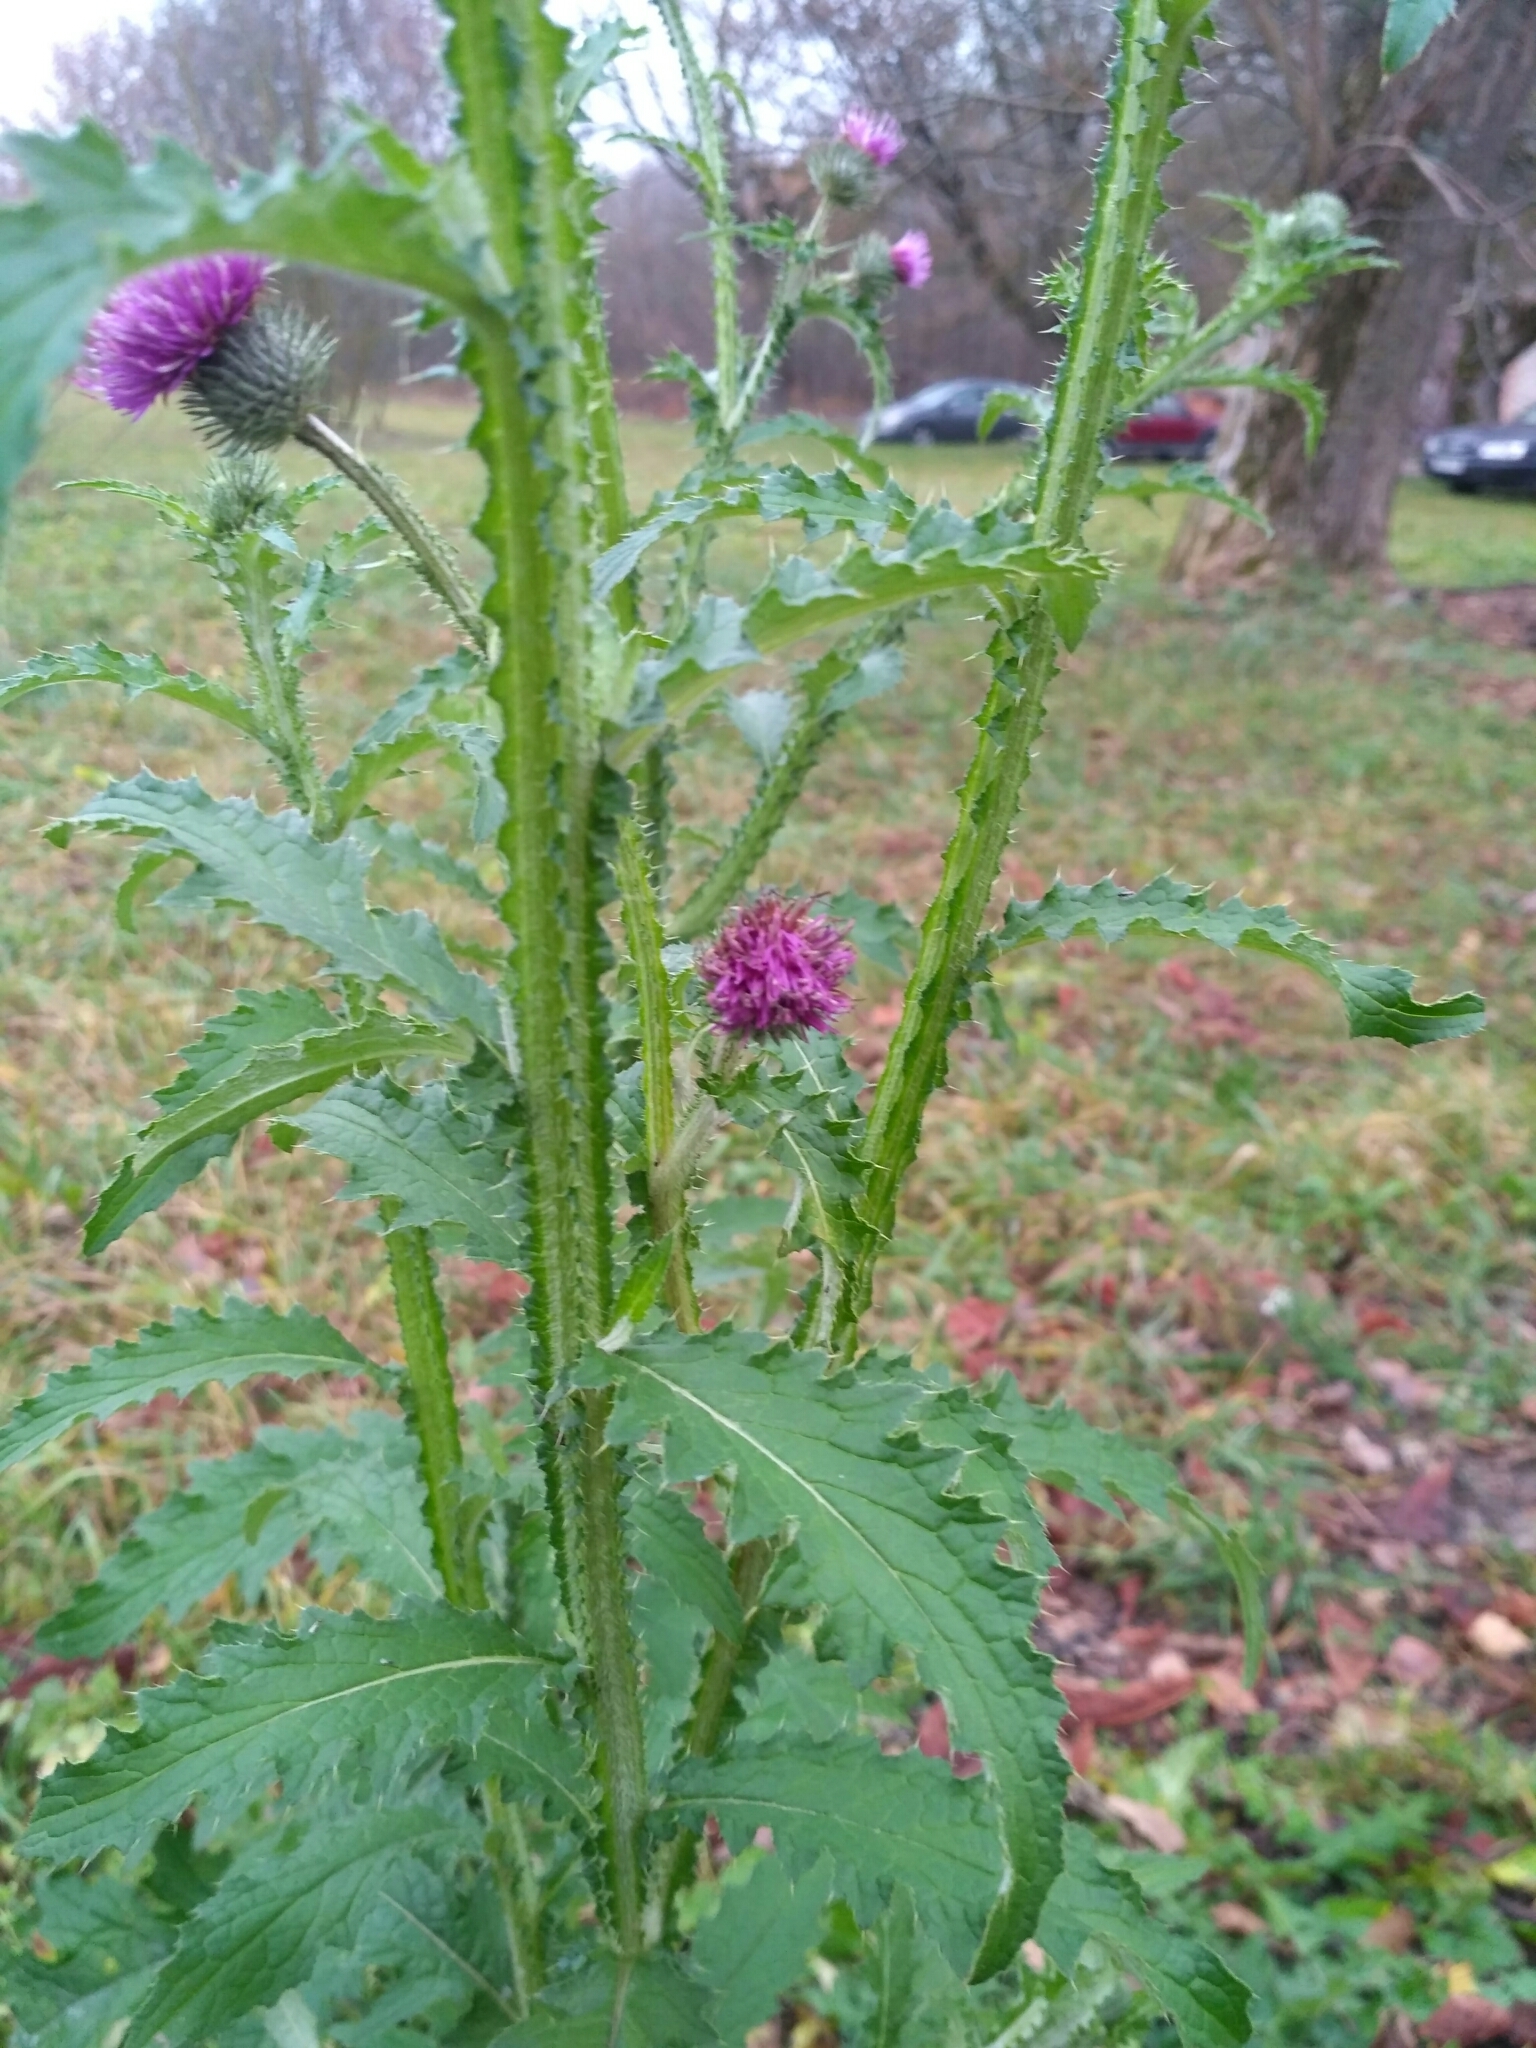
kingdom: Plantae
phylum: Tracheophyta
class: Magnoliopsida
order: Asterales
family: Asteraceae
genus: Carduus
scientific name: Carduus crispus
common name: Welted thistle
